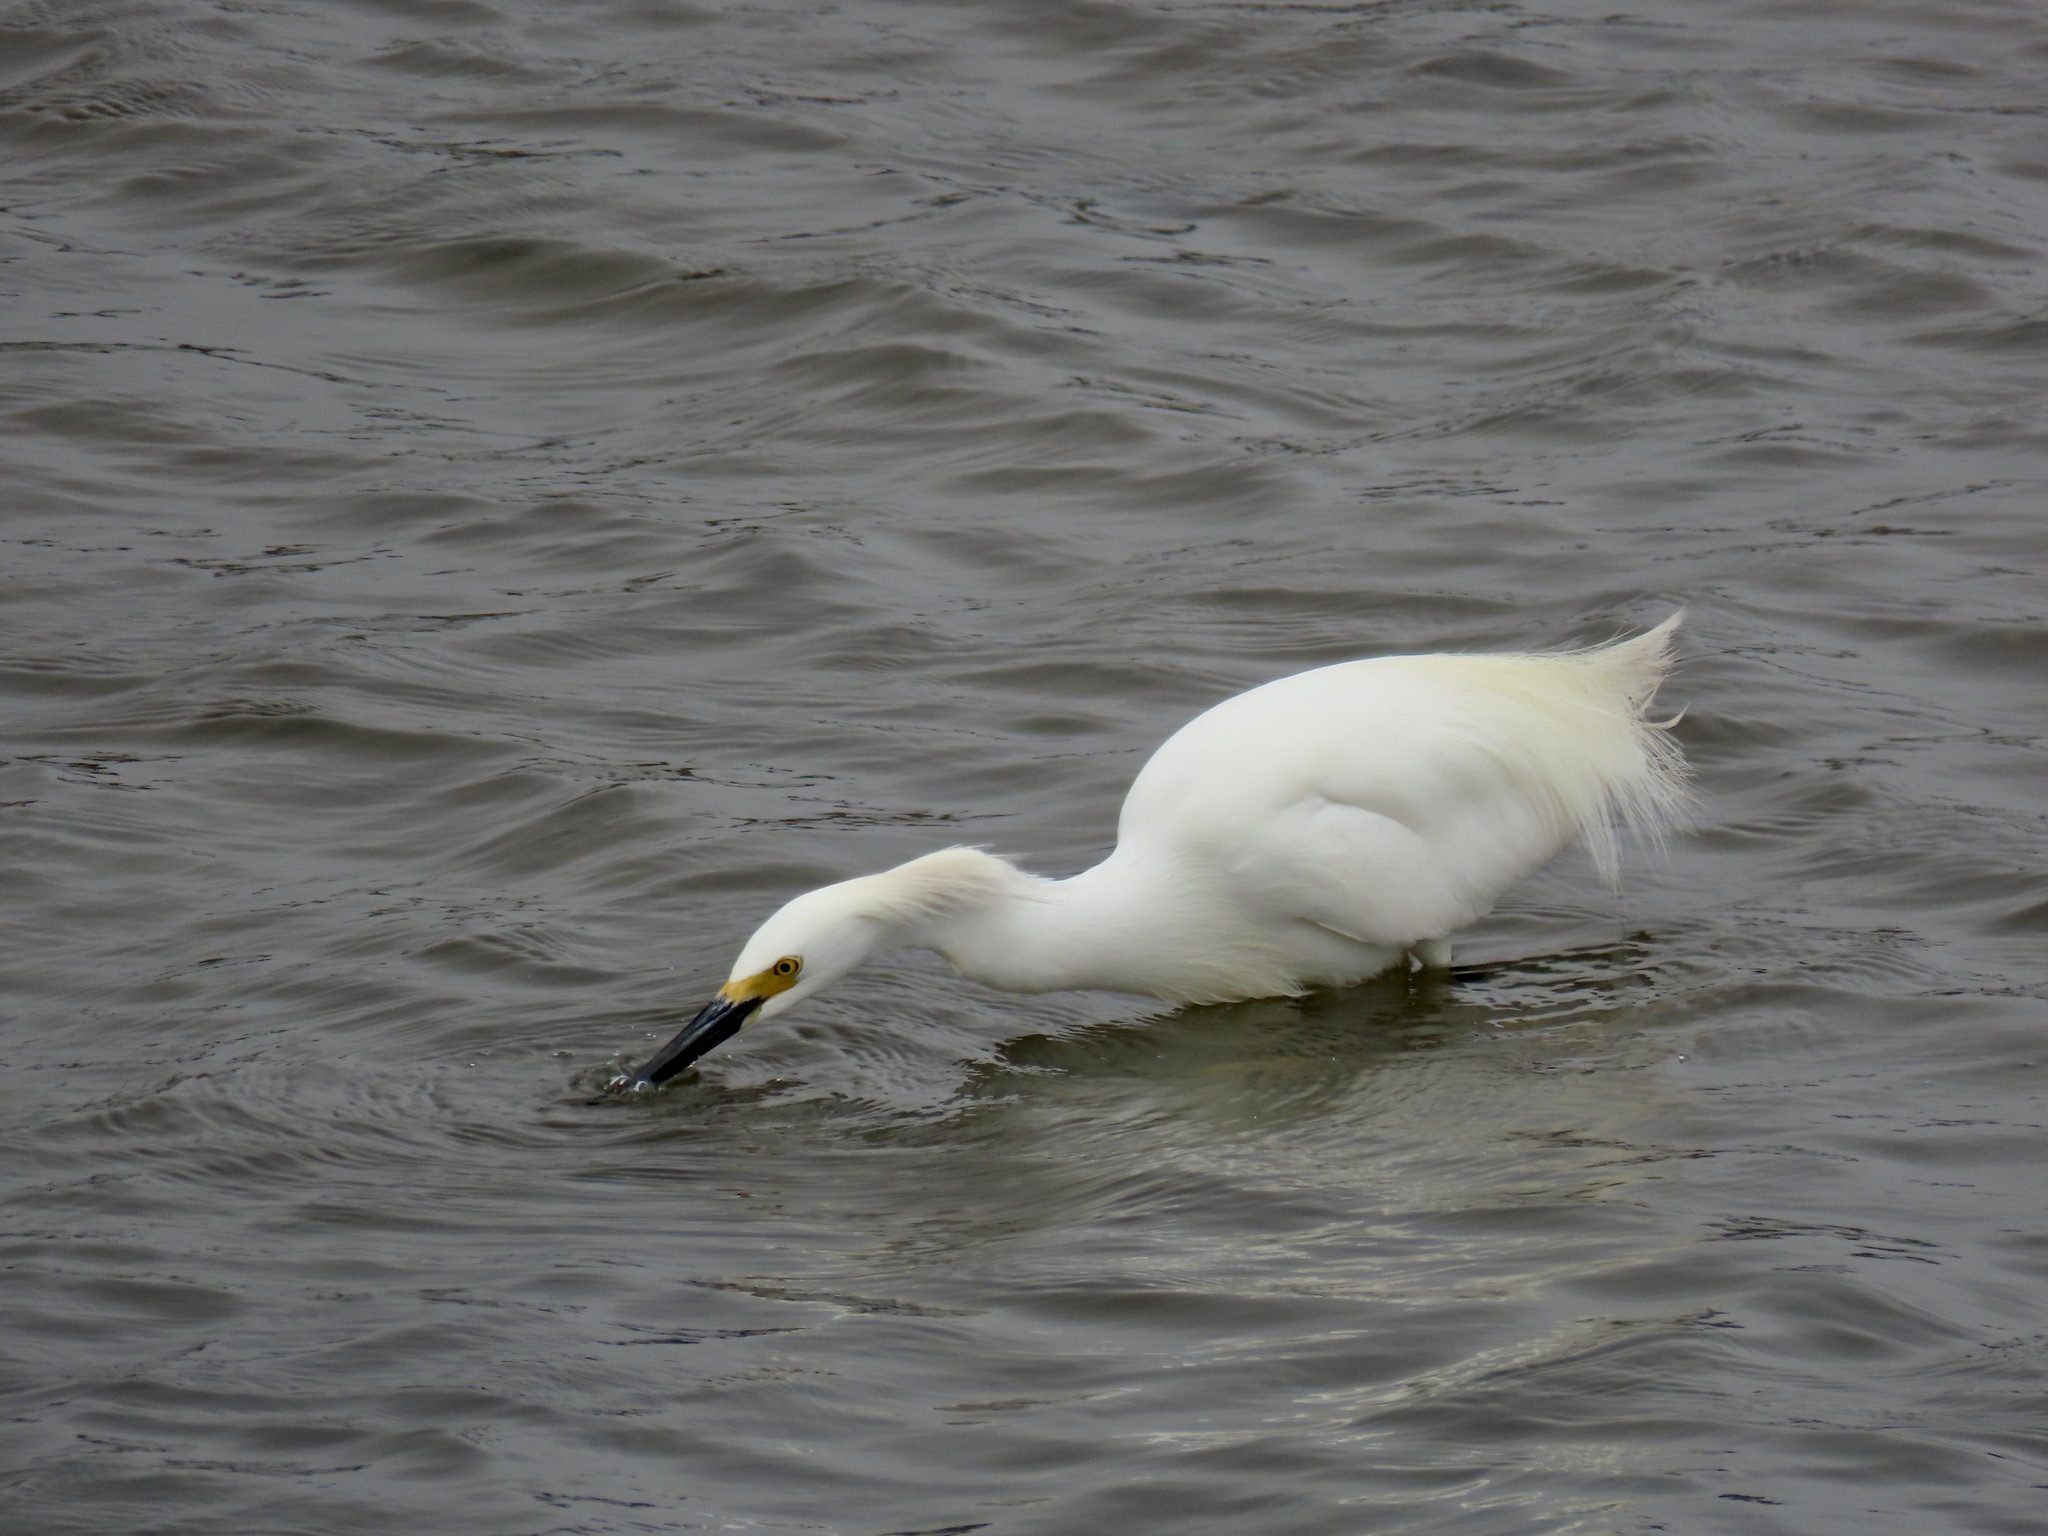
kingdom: Animalia
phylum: Chordata
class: Aves
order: Pelecaniformes
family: Ardeidae
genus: Egretta
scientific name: Egretta thula
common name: Snowy egret
